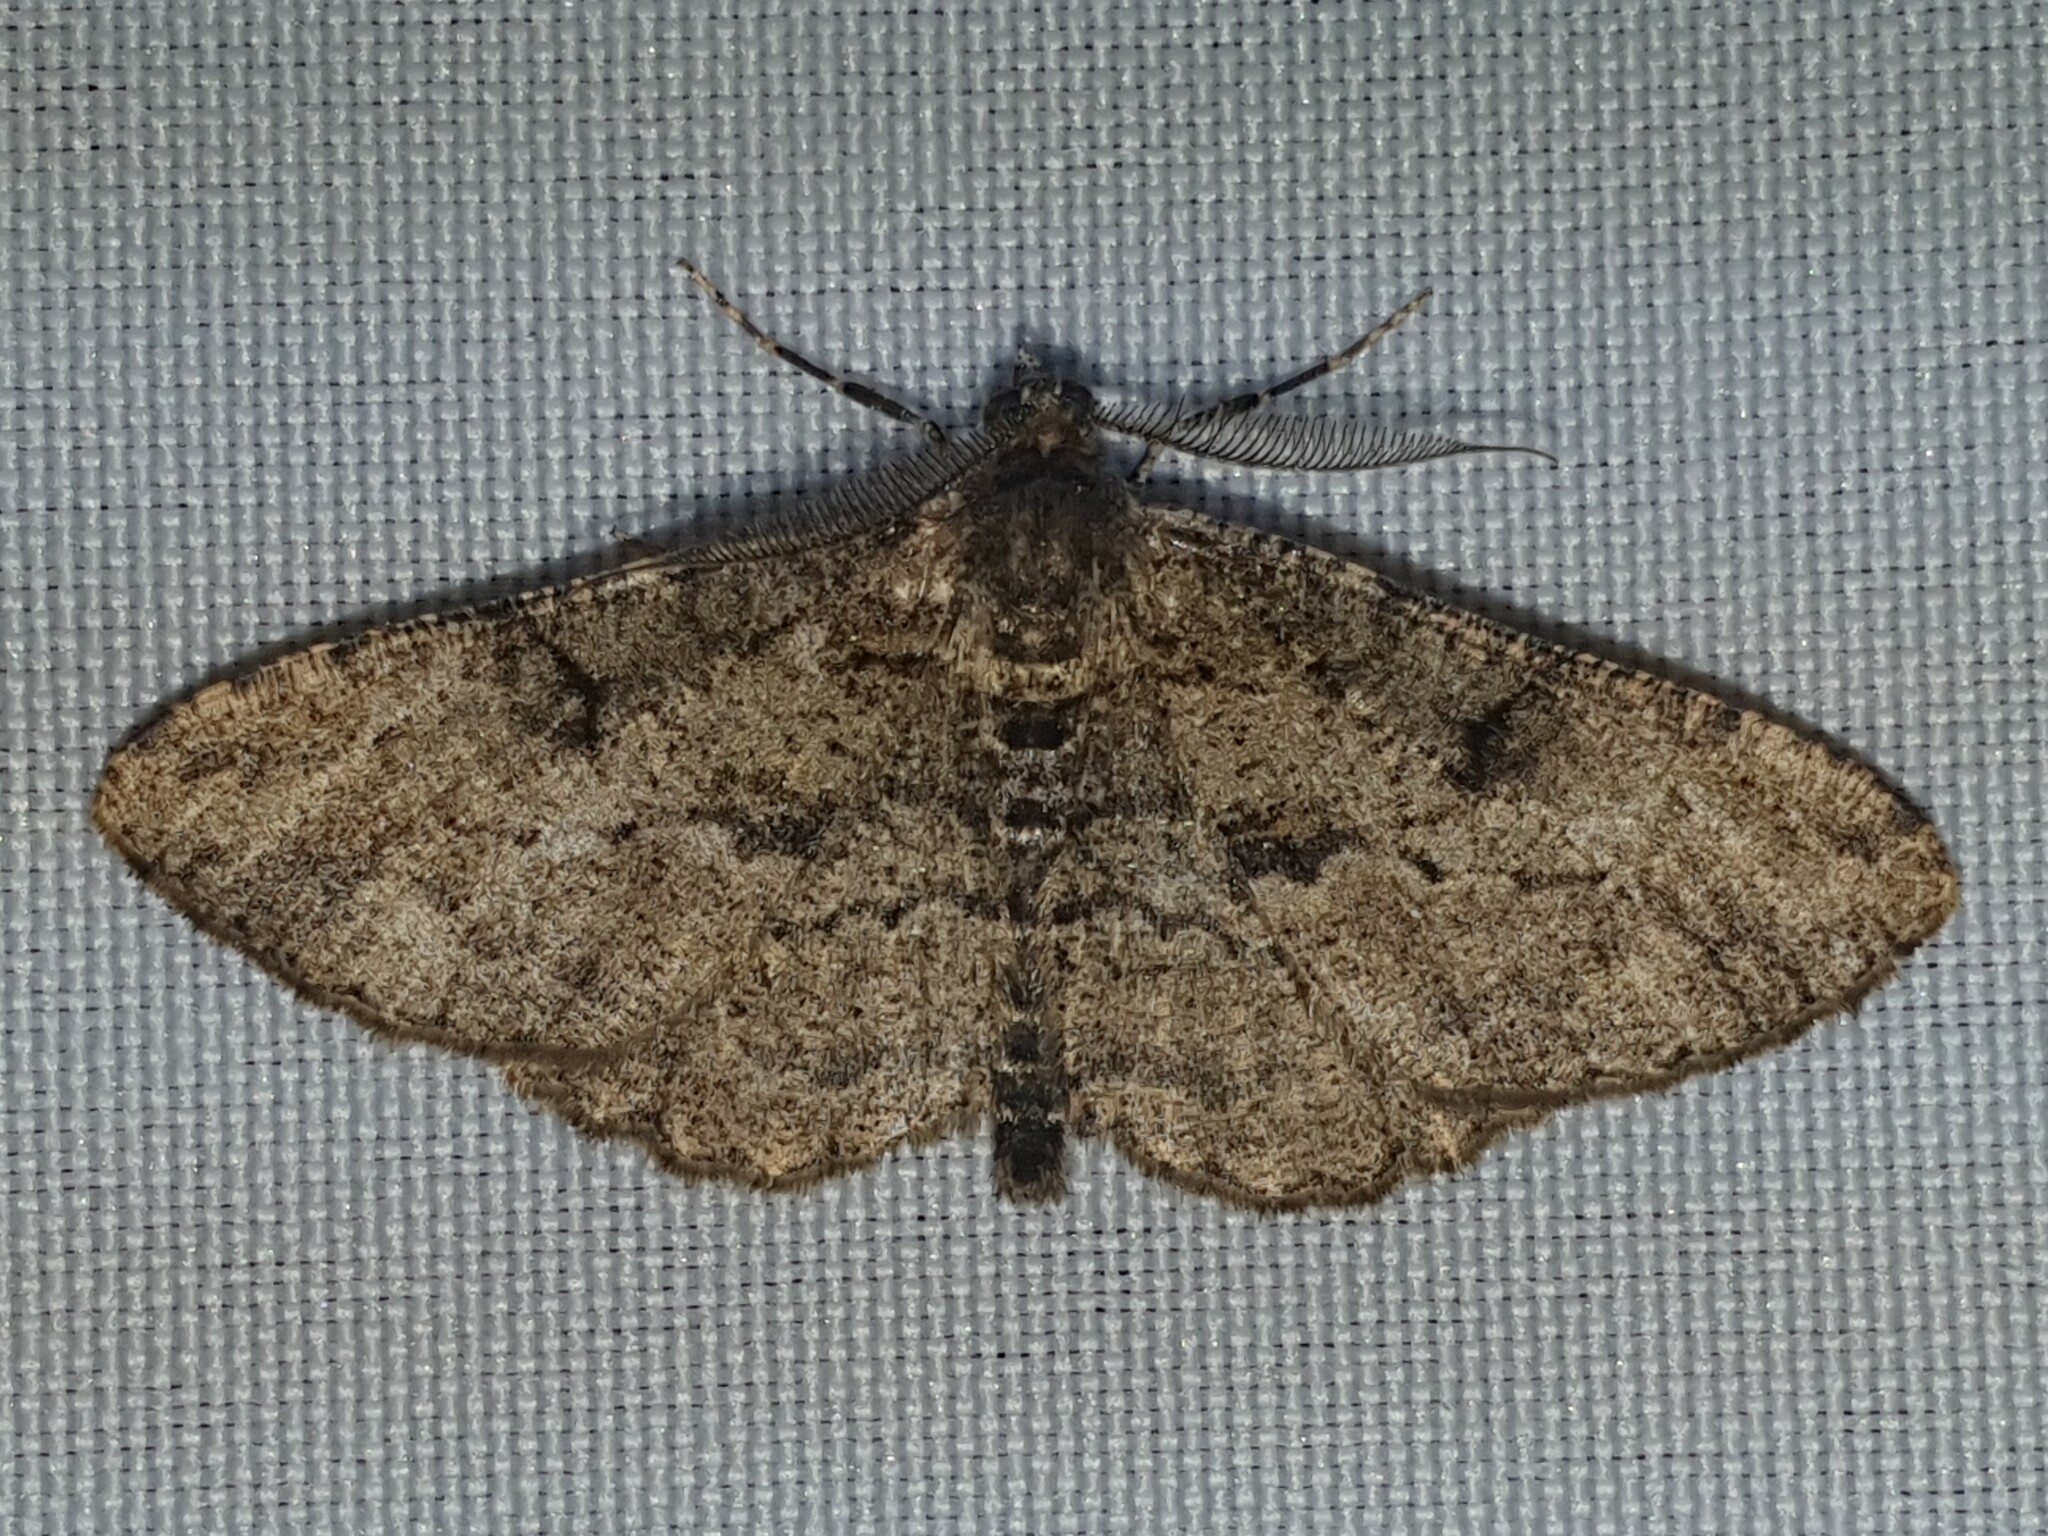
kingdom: Animalia
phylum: Arthropoda
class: Insecta
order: Lepidoptera
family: Geometridae
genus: Peribatodes
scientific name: Peribatodes rhomboidaria
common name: Willow beauty
